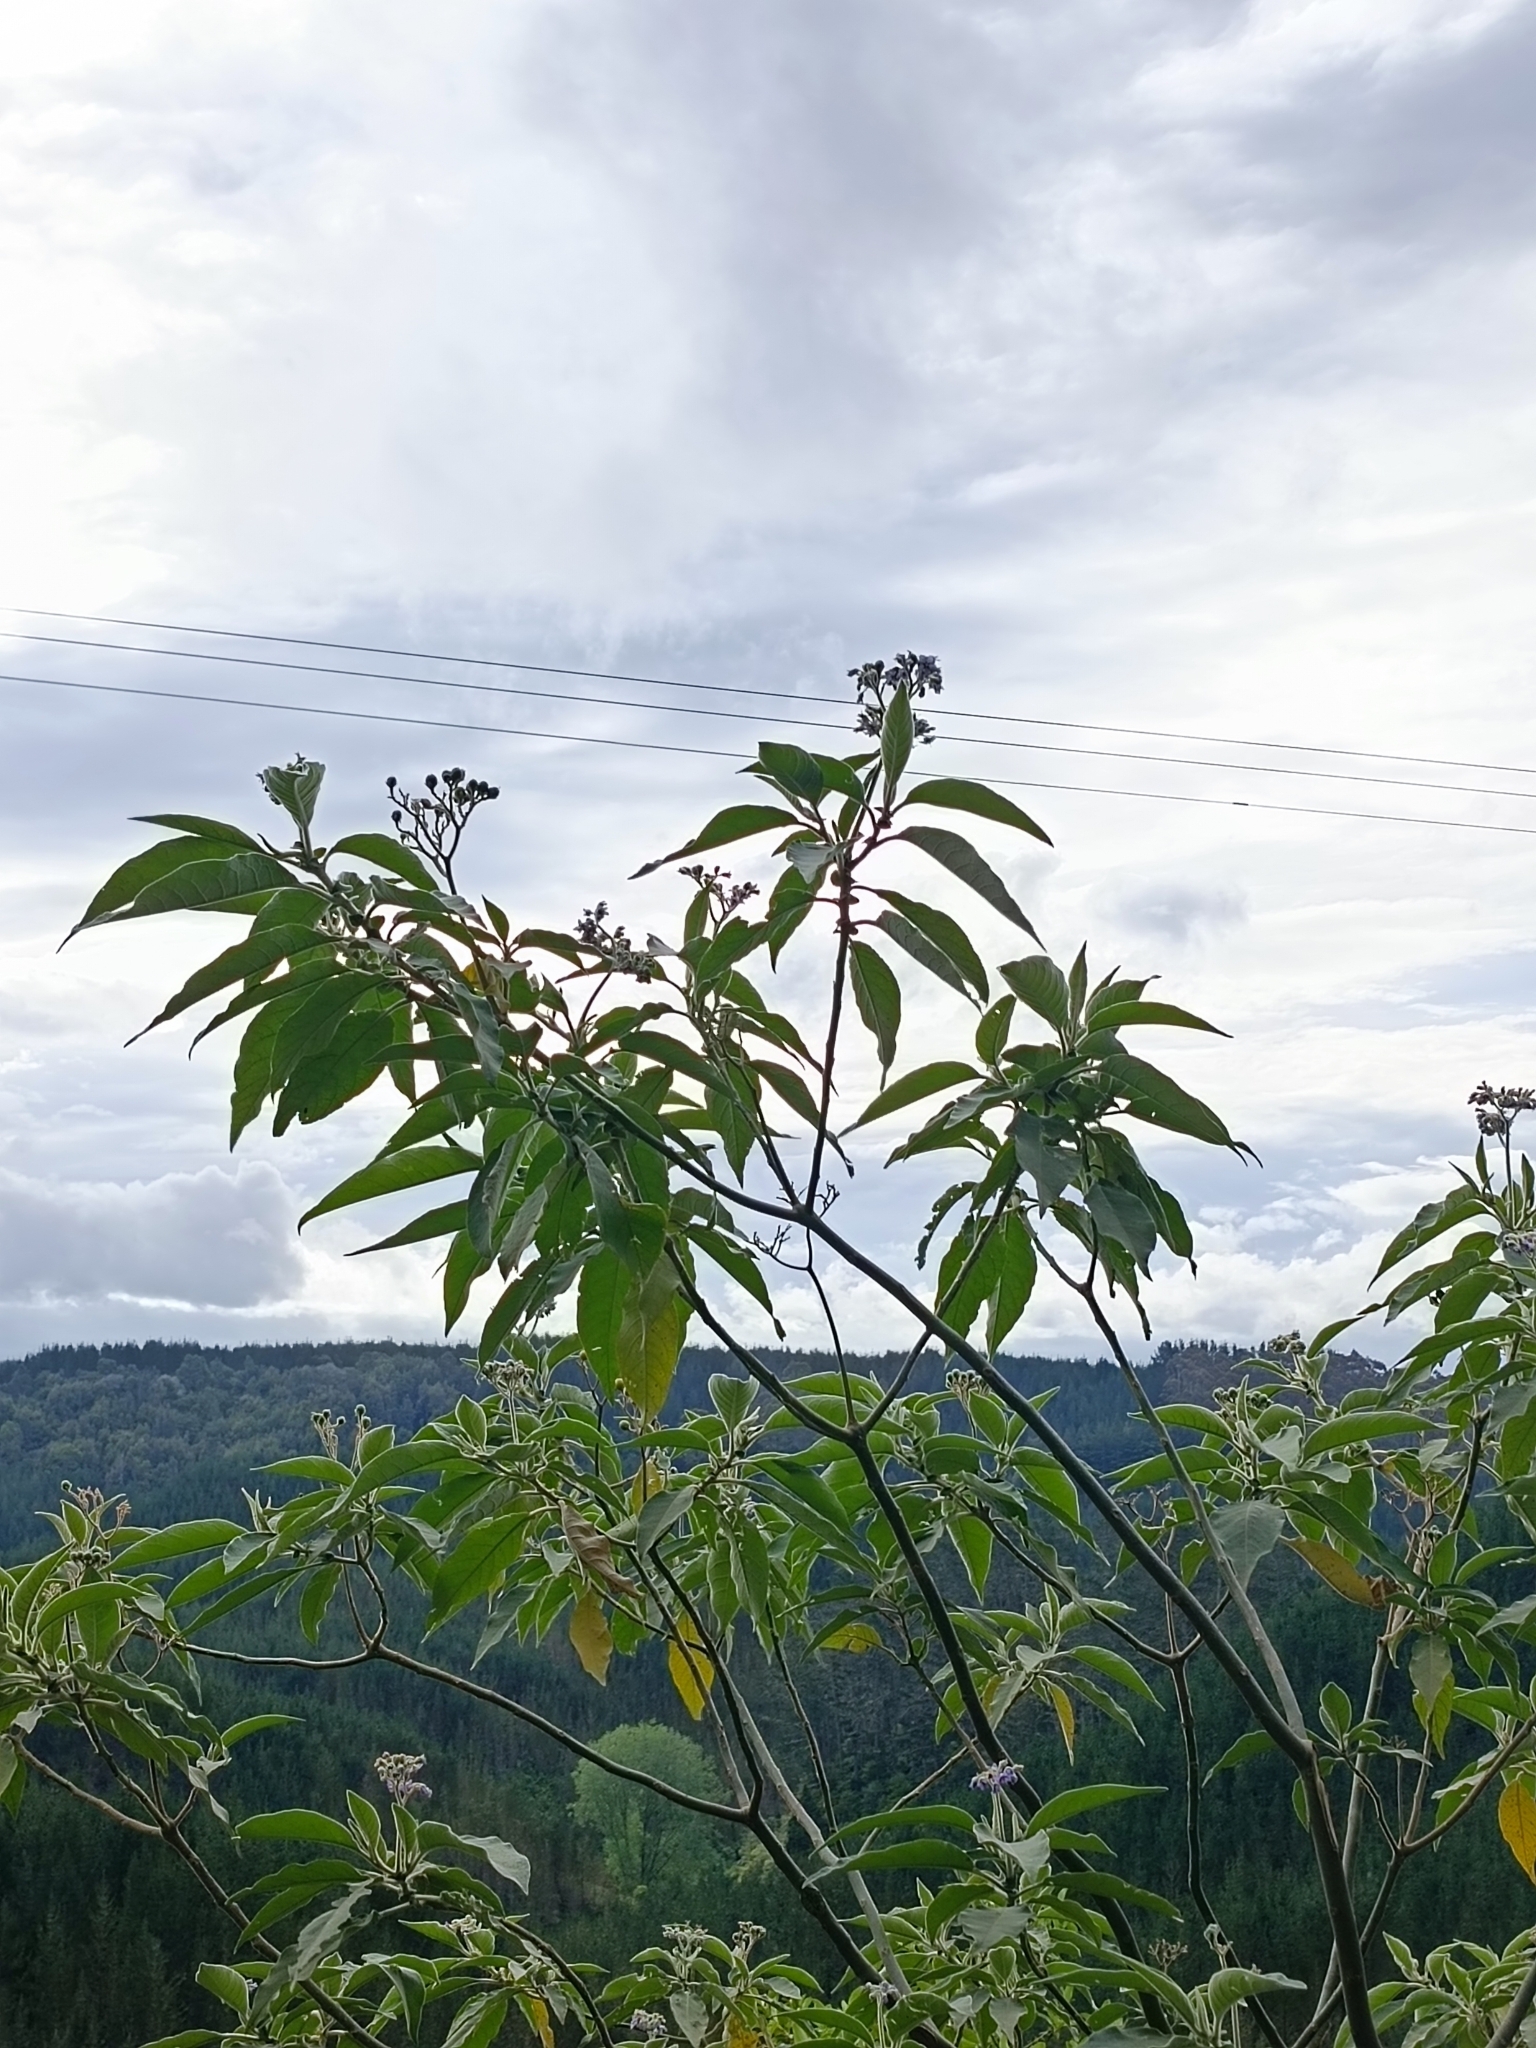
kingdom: Plantae
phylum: Tracheophyta
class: Magnoliopsida
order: Solanales
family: Solanaceae
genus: Solanum
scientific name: Solanum mauritianum
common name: Earleaf nightshade
